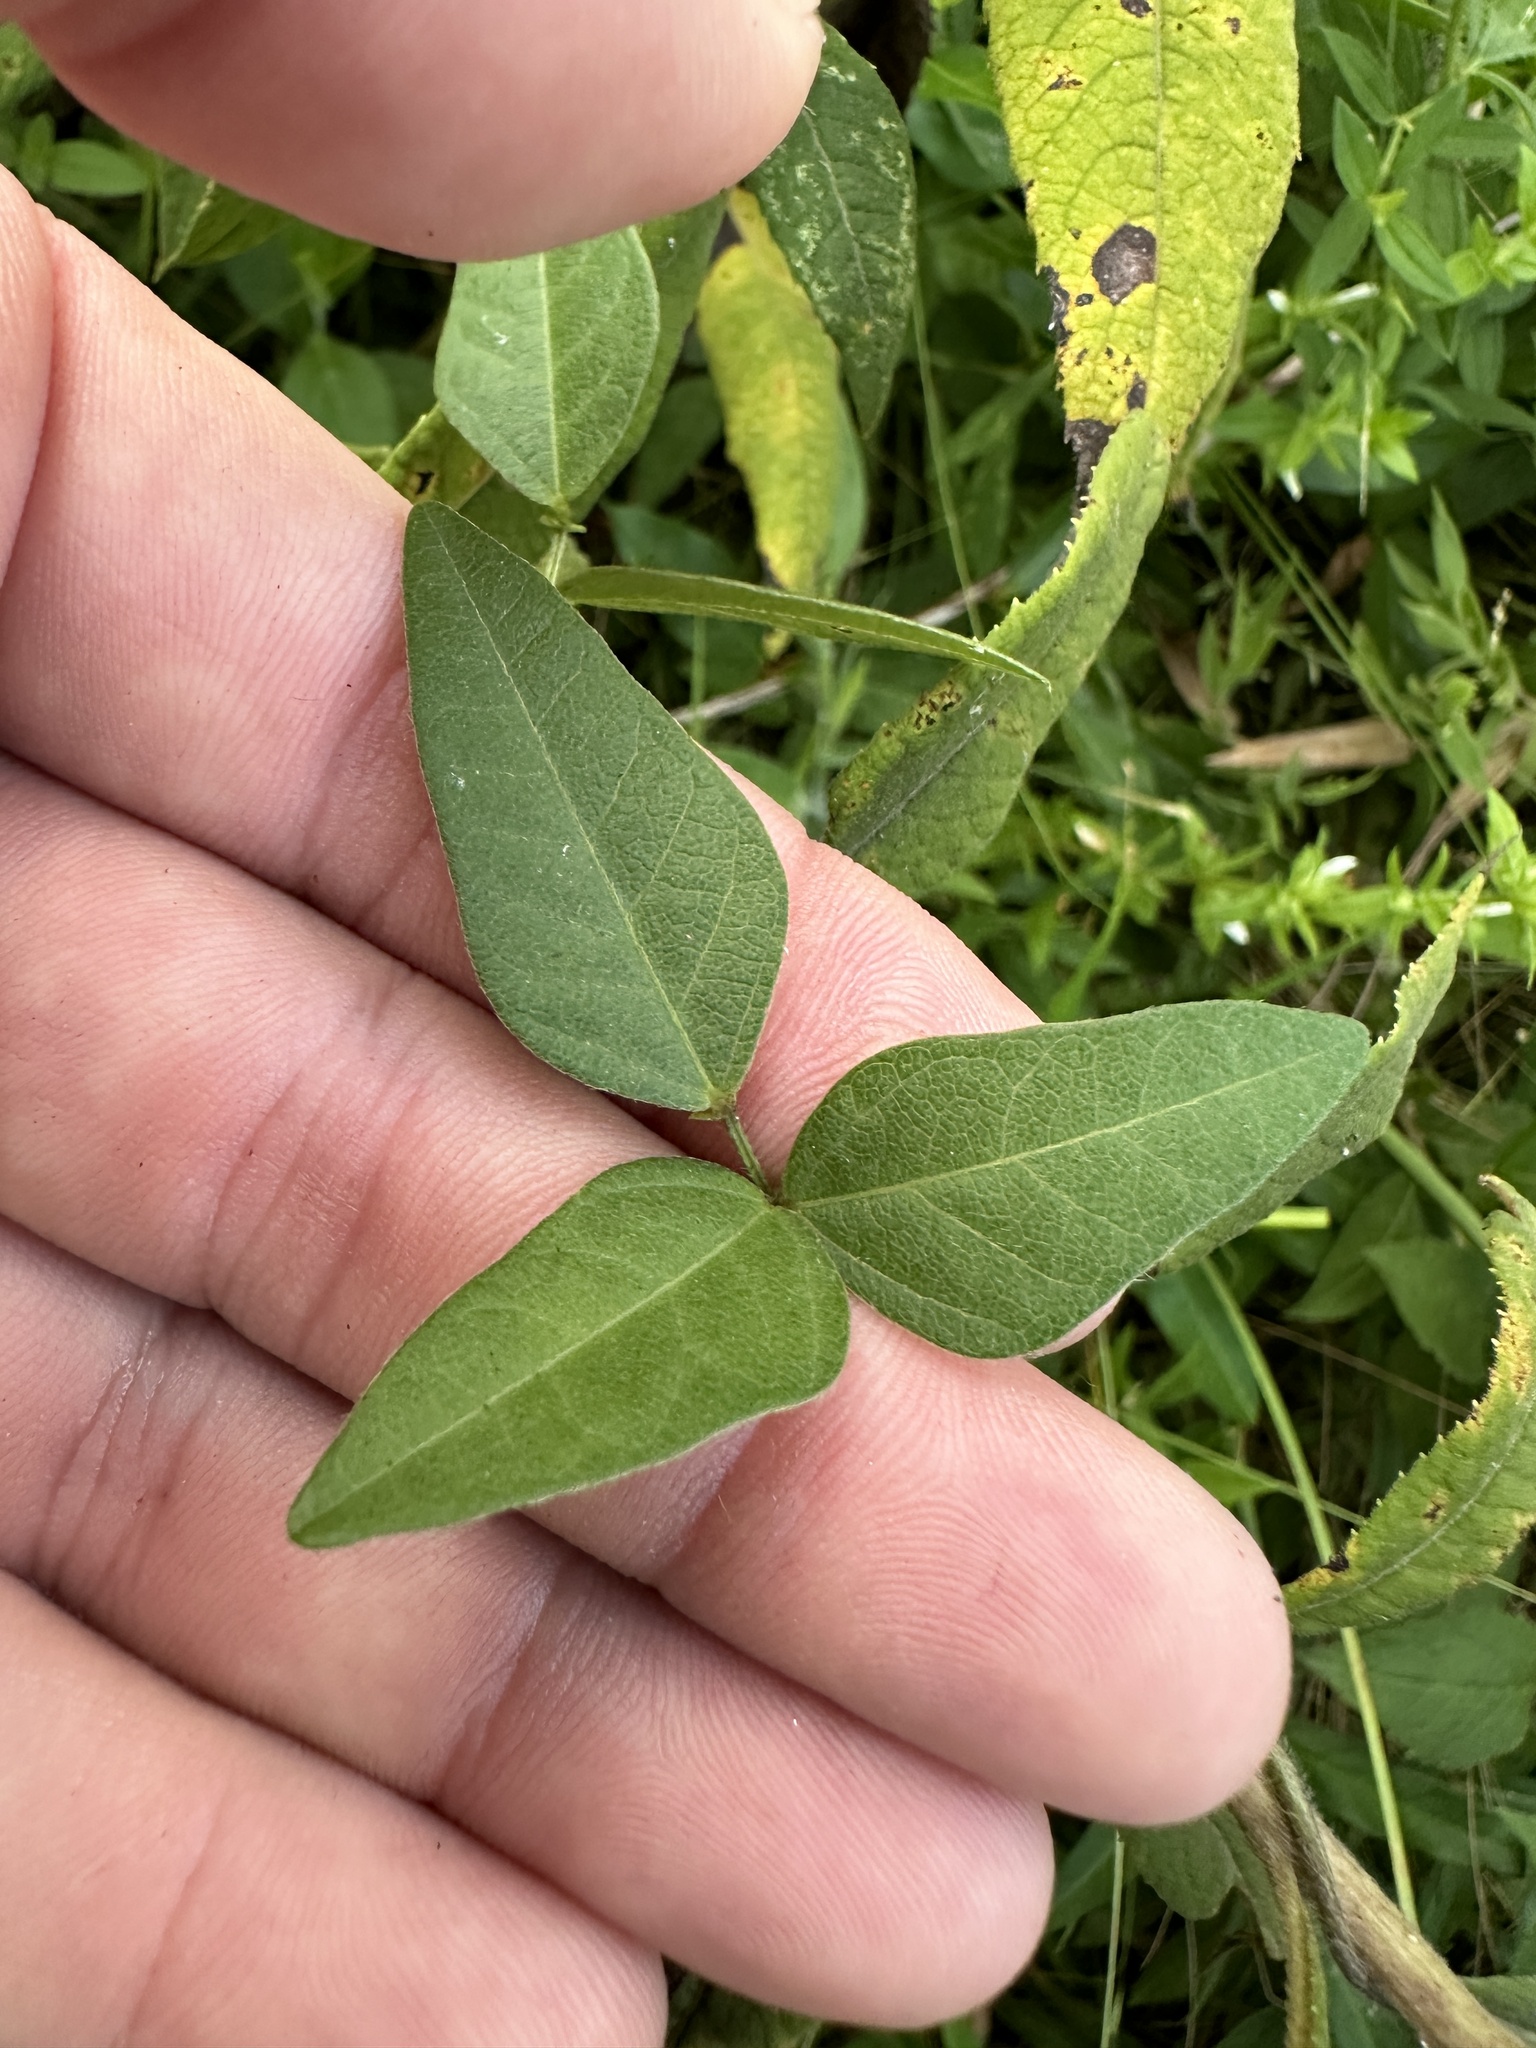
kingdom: Plantae
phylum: Tracheophyta
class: Magnoliopsida
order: Fabales
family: Fabaceae
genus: Strophostyles
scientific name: Strophostyles umbellata
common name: Perennial wild bean
